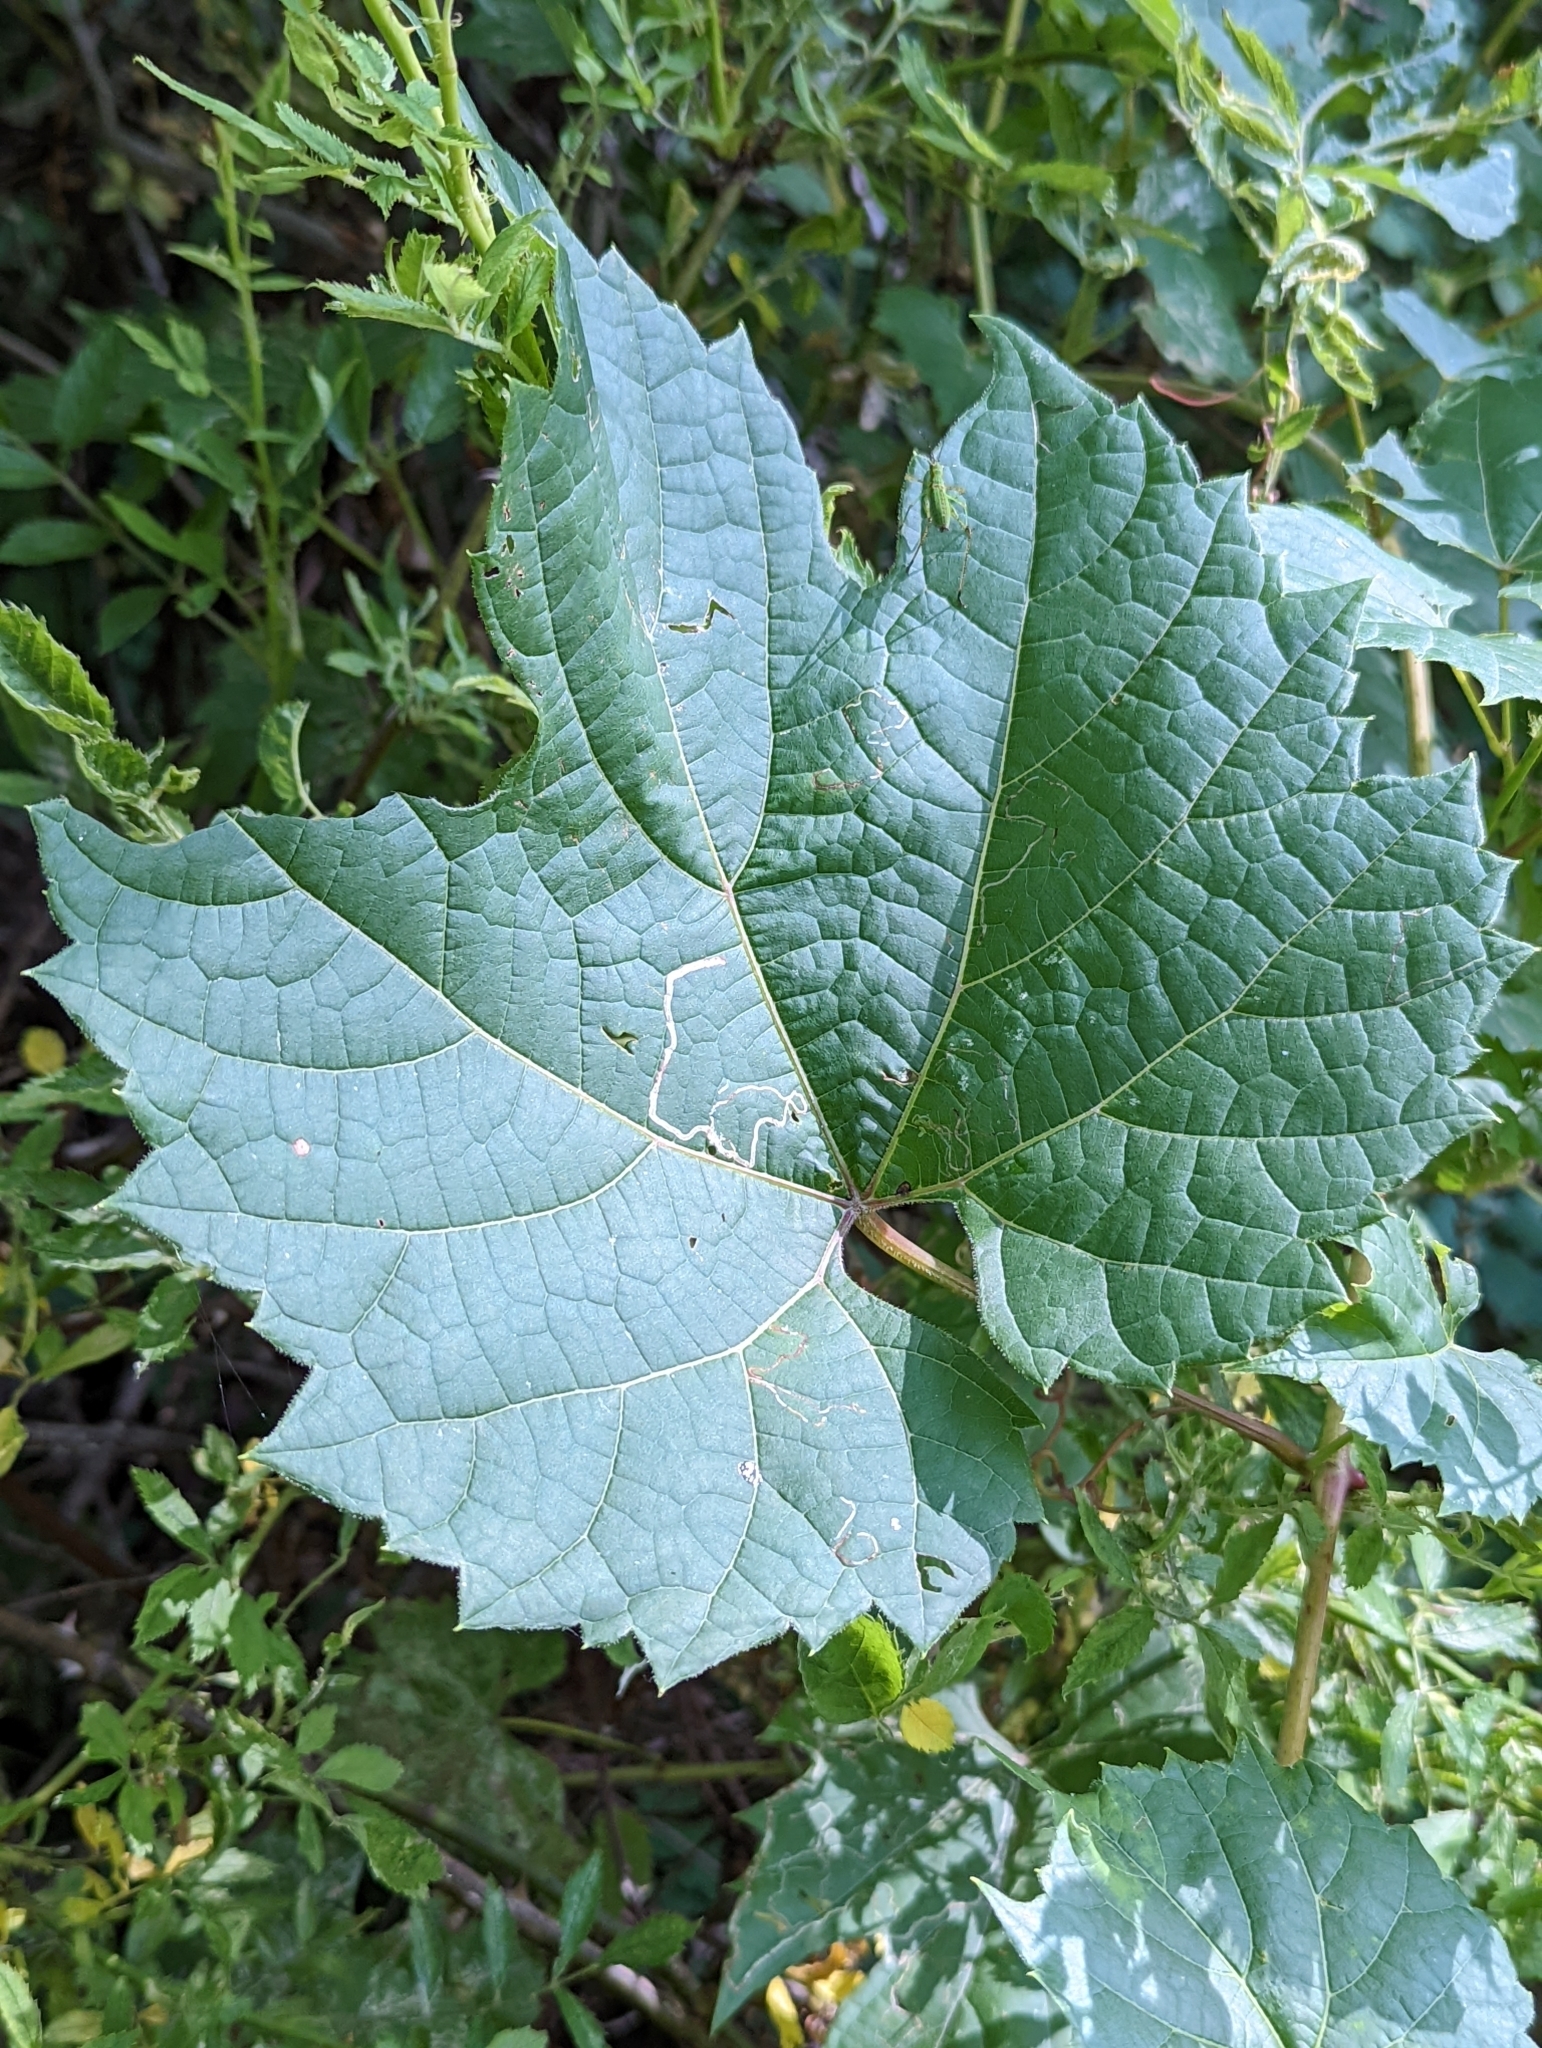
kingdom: Animalia
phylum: Arthropoda
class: Insecta
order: Lepidoptera
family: Gracillariidae
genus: Phyllocnistis
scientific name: Phyllocnistis vitifoliella
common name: Grape leaf-miner moth
